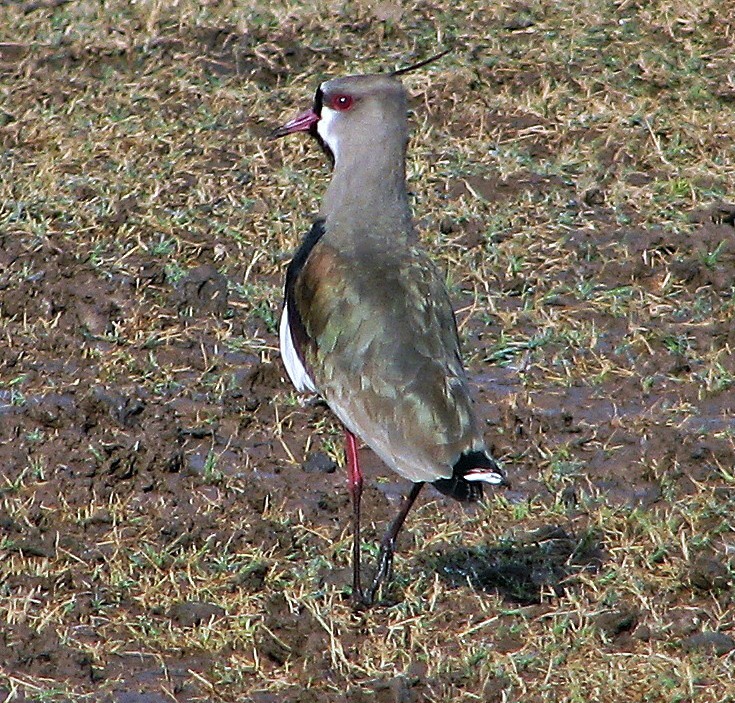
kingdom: Animalia
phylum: Chordata
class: Aves
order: Charadriiformes
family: Charadriidae
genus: Vanellus
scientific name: Vanellus chilensis
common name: Southern lapwing
